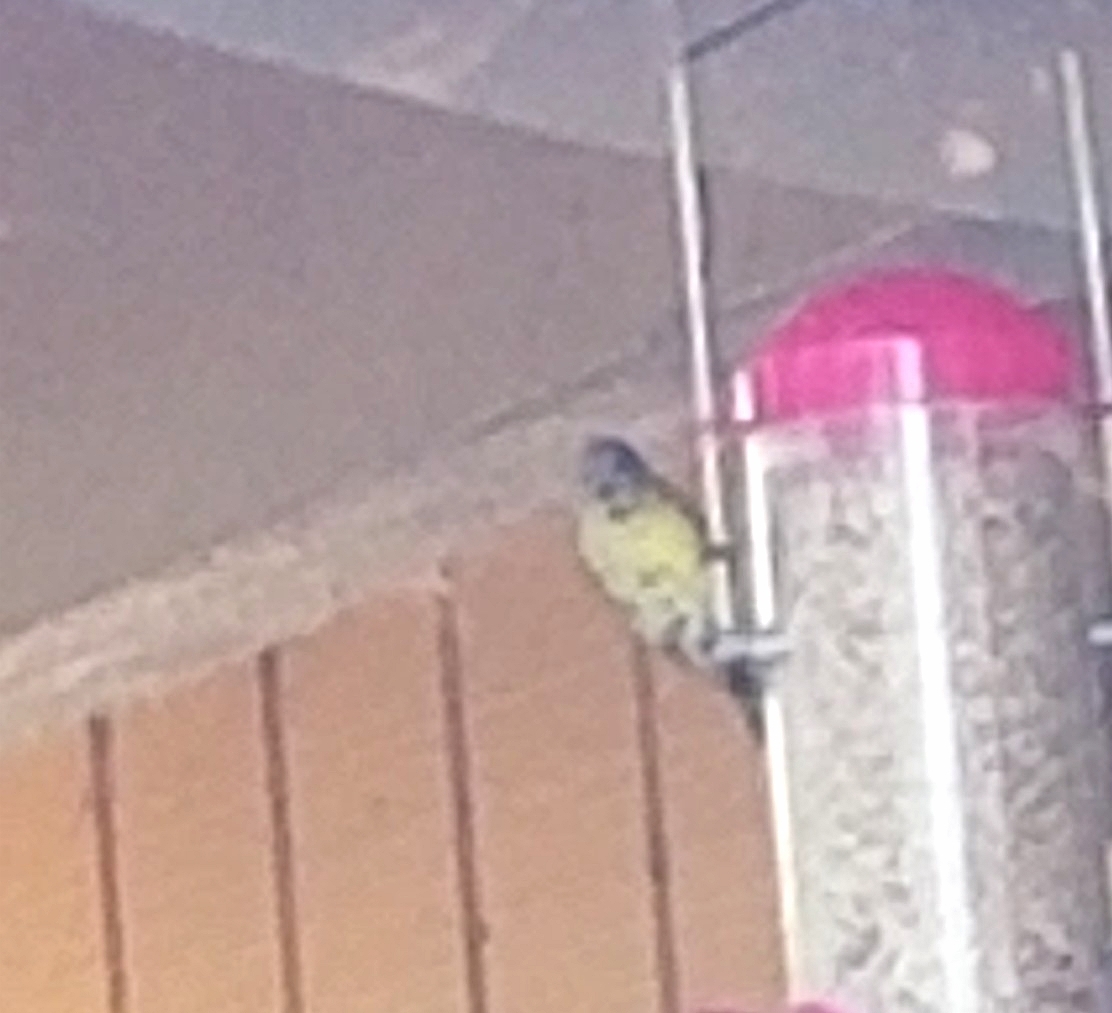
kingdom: Animalia
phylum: Chordata
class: Aves
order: Passeriformes
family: Fringillidae
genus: Spinus
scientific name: Spinus psaltria
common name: Lesser goldfinch
